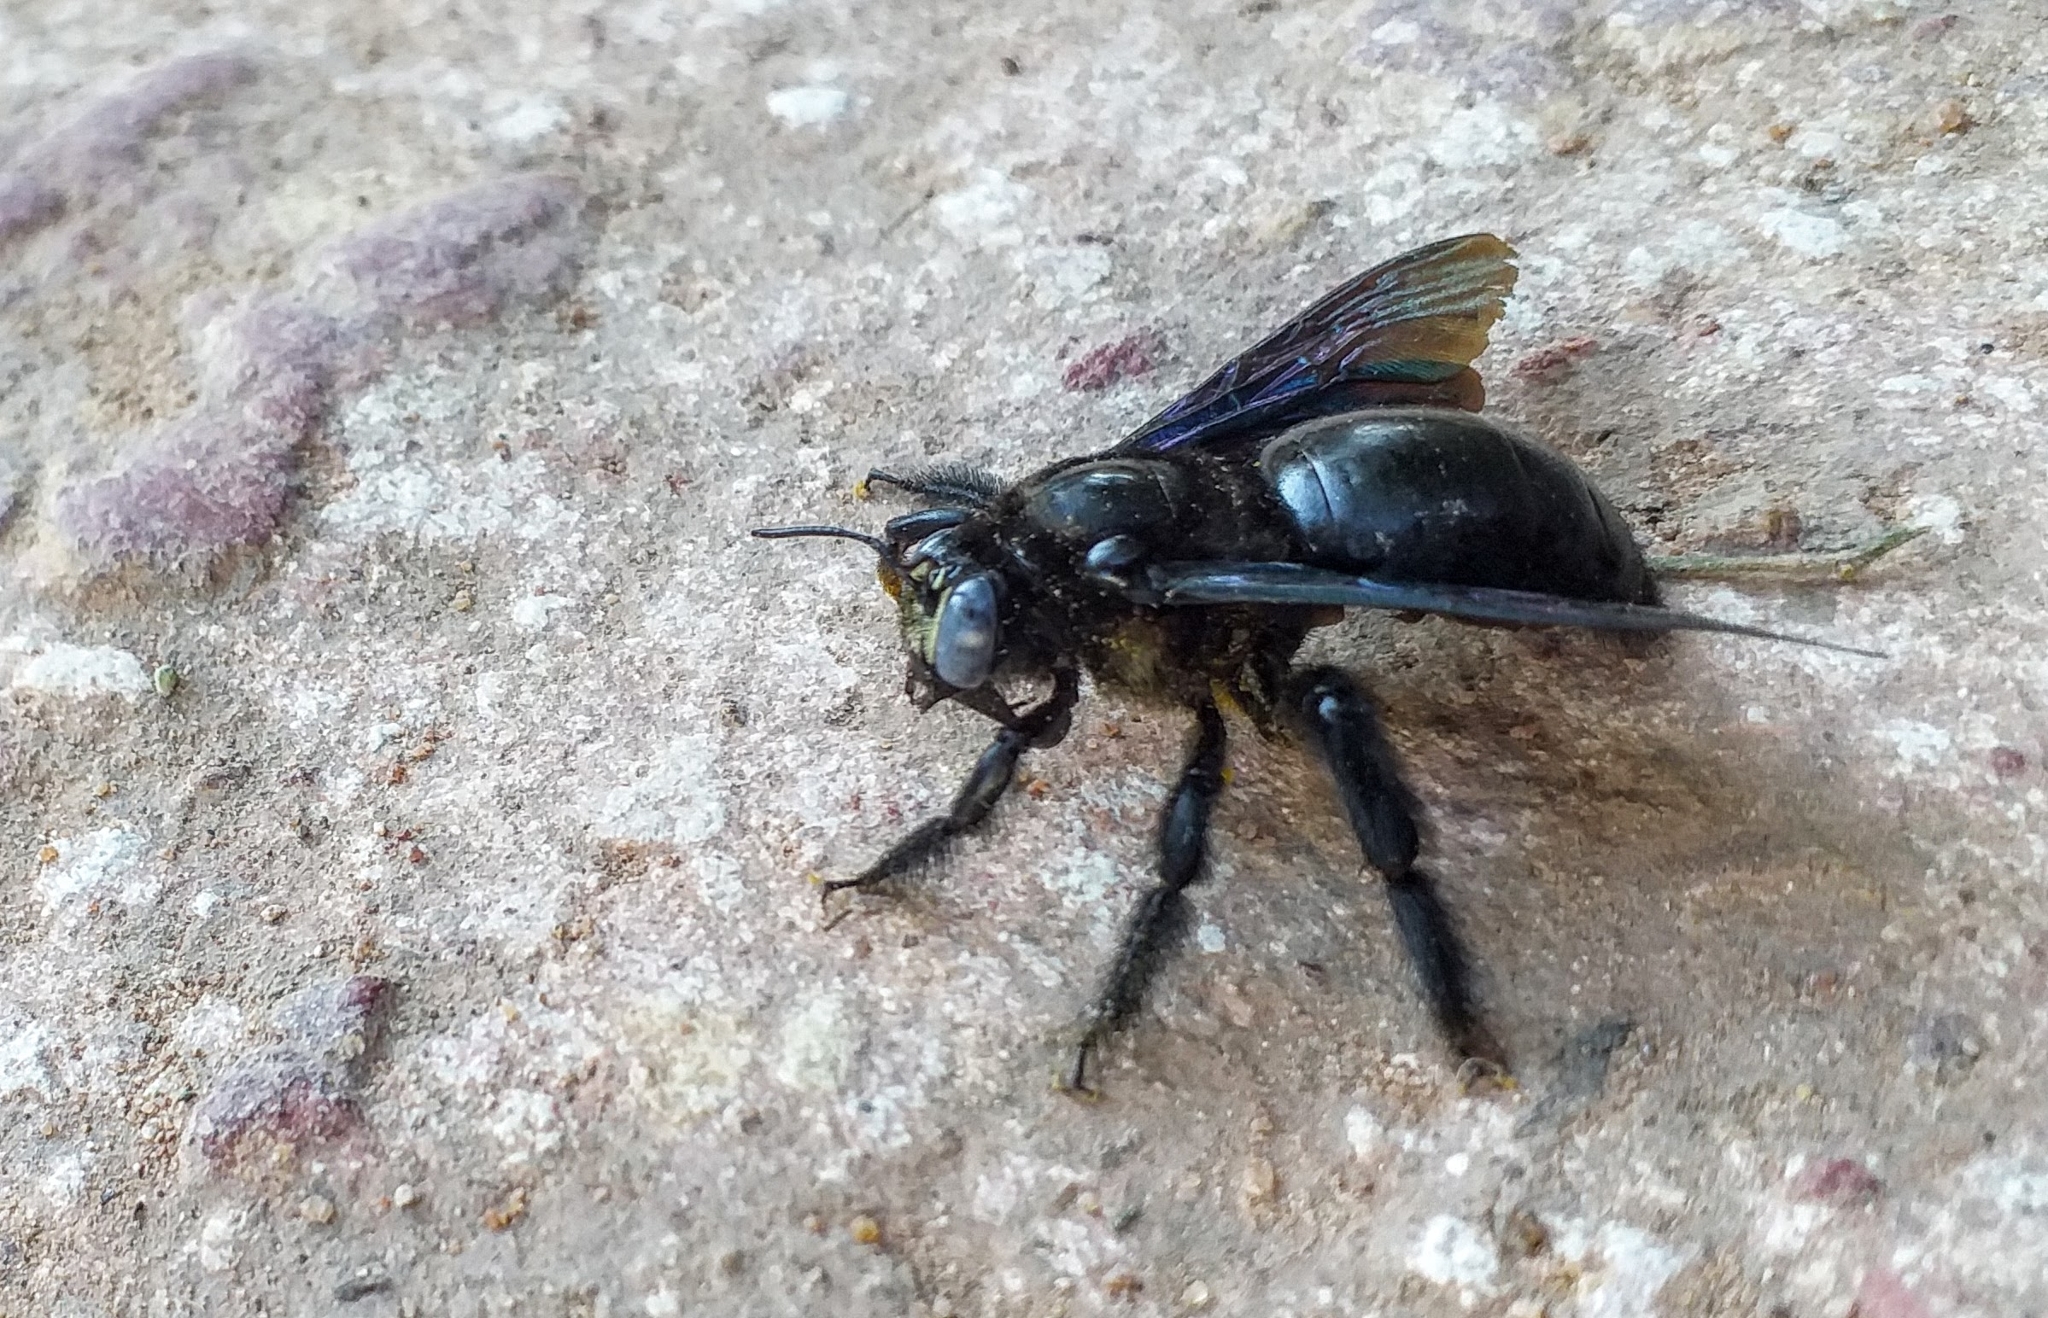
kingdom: Animalia
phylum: Arthropoda
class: Insecta
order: Hymenoptera
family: Apidae
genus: Xylocopa
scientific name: Xylocopa auripennis
